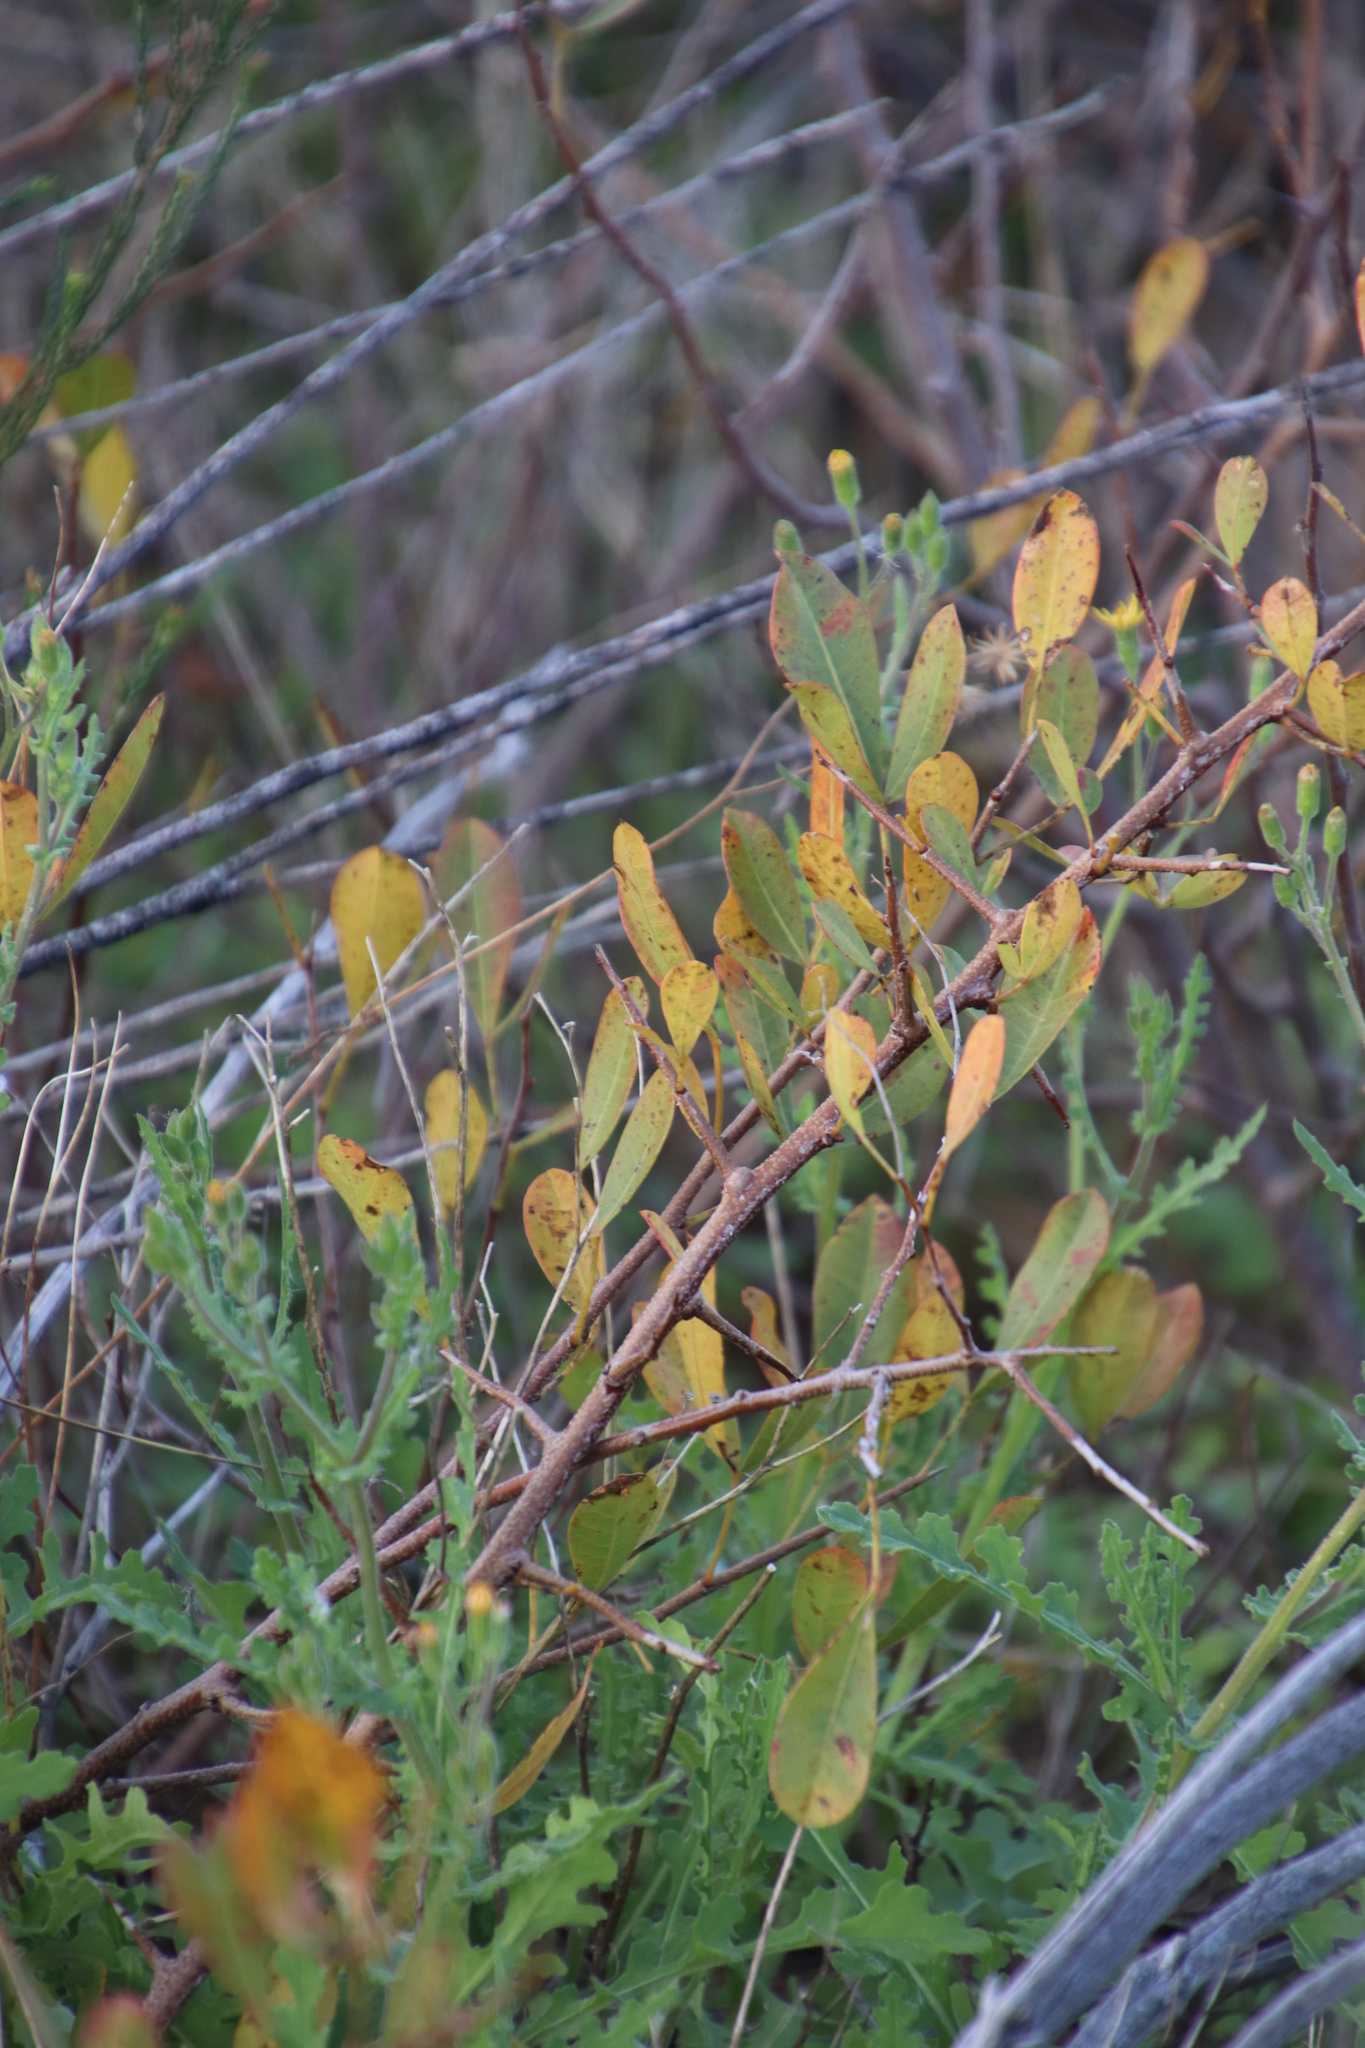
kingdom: Plantae
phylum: Tracheophyta
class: Magnoliopsida
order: Sapindales
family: Anacardiaceae
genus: Searsia
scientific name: Searsia laevigata
